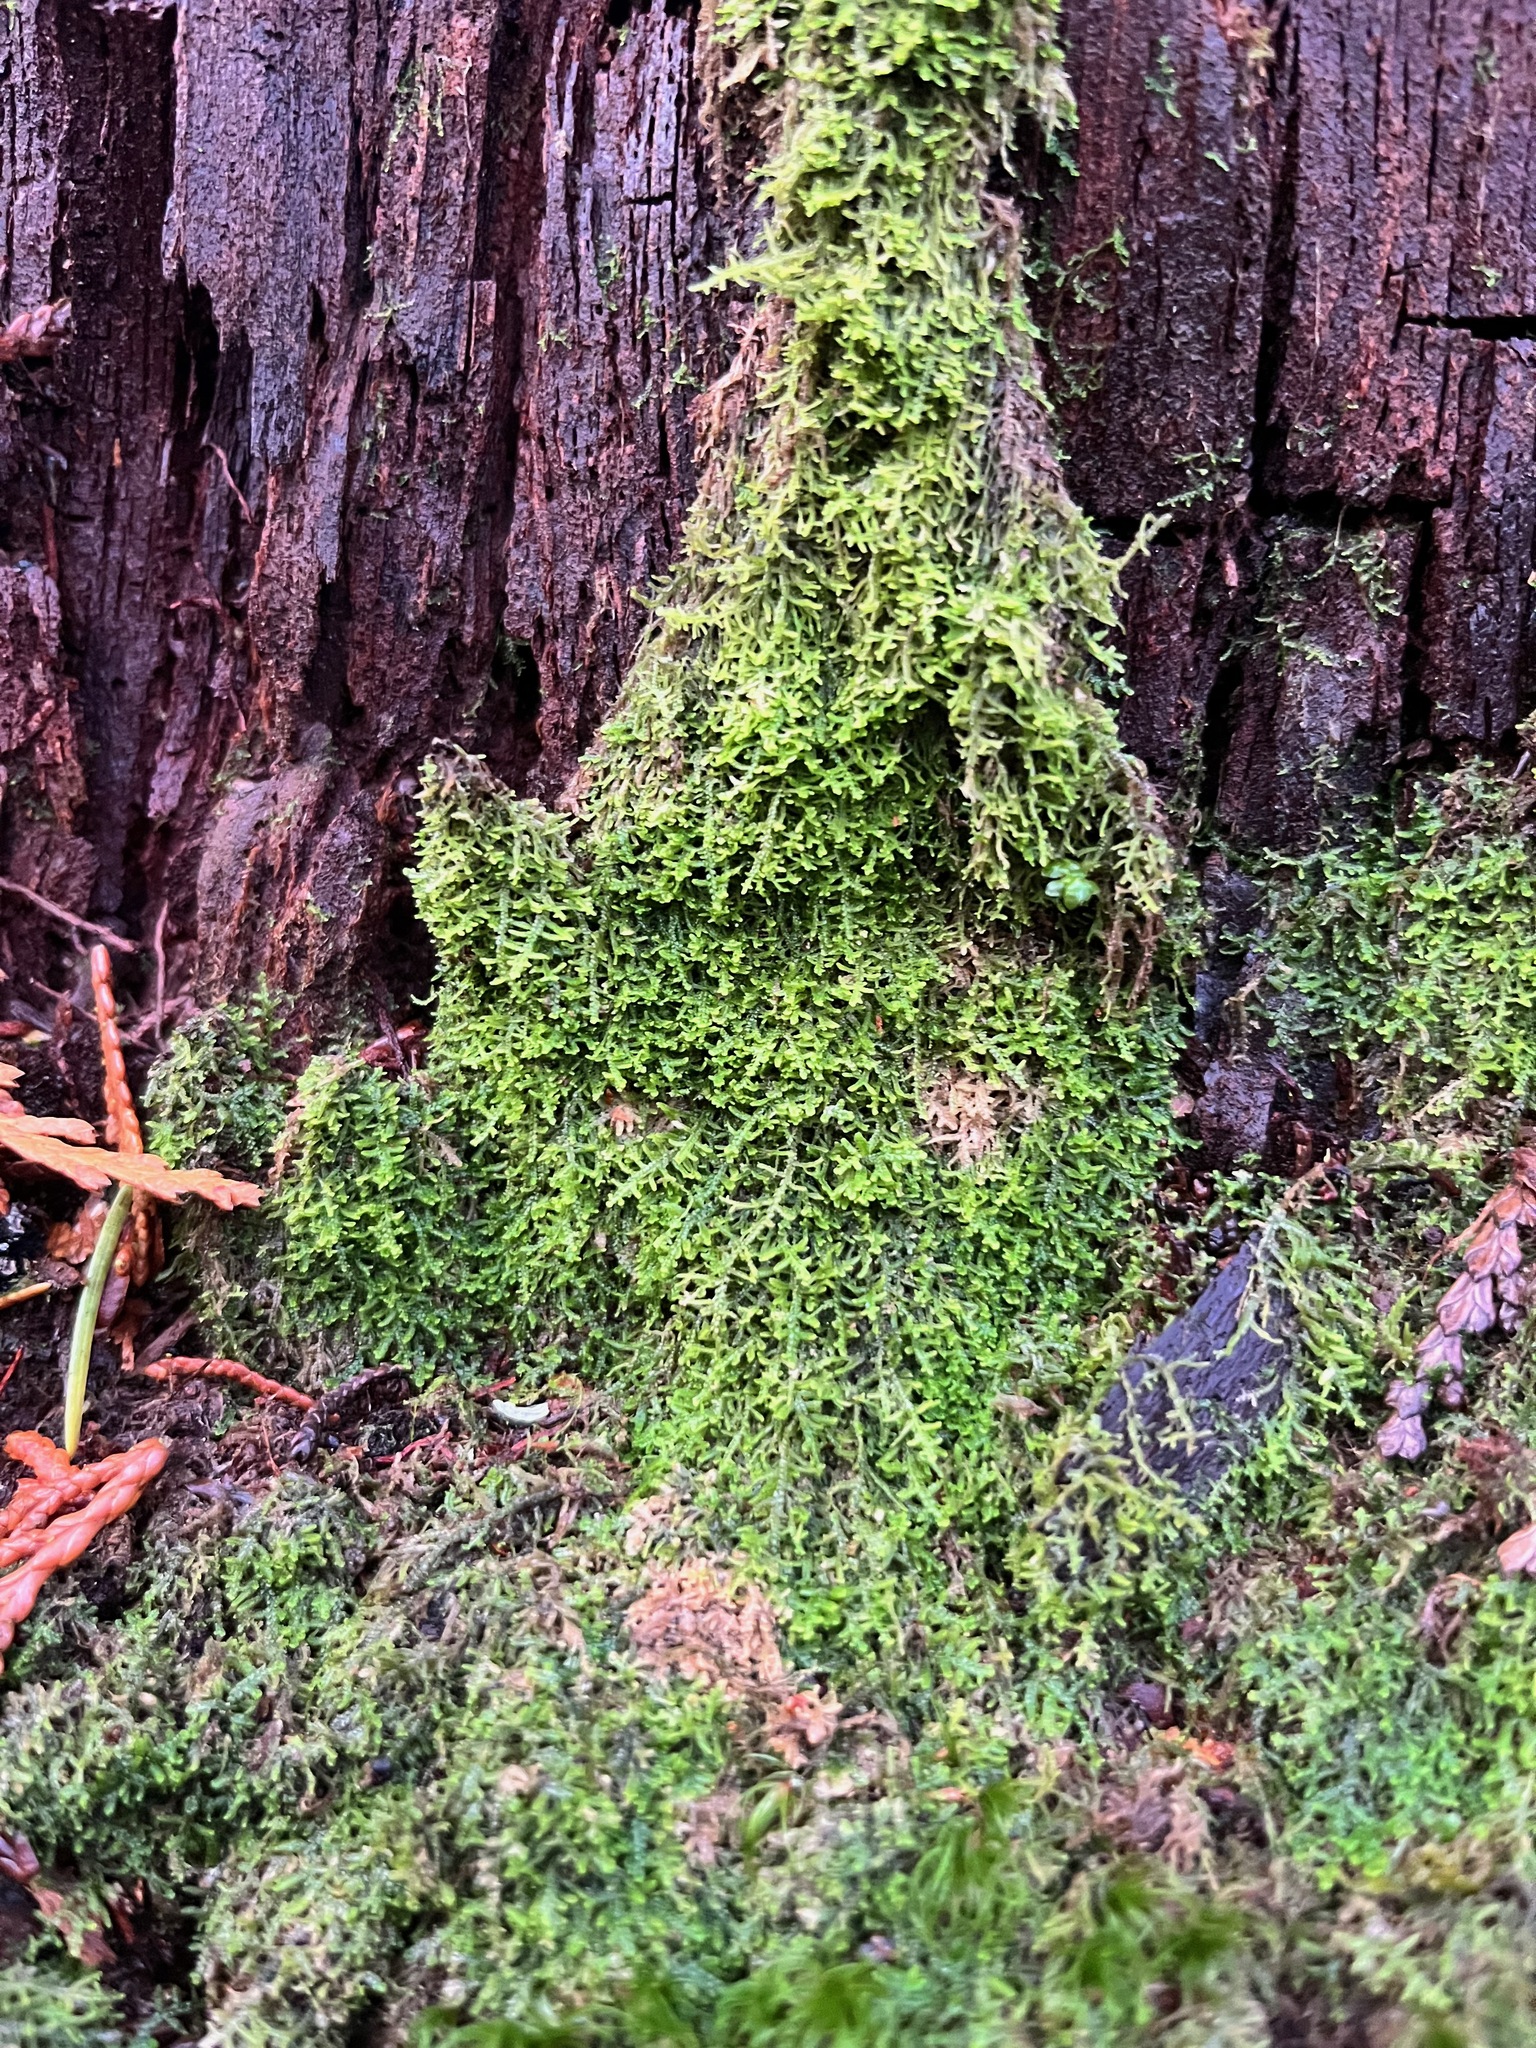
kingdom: Plantae
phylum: Marchantiophyta
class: Jungermanniopsida
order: Jungermanniales
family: Lepidoziaceae
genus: Lepidozia
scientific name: Lepidozia reptans
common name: Creeping fingerwort
